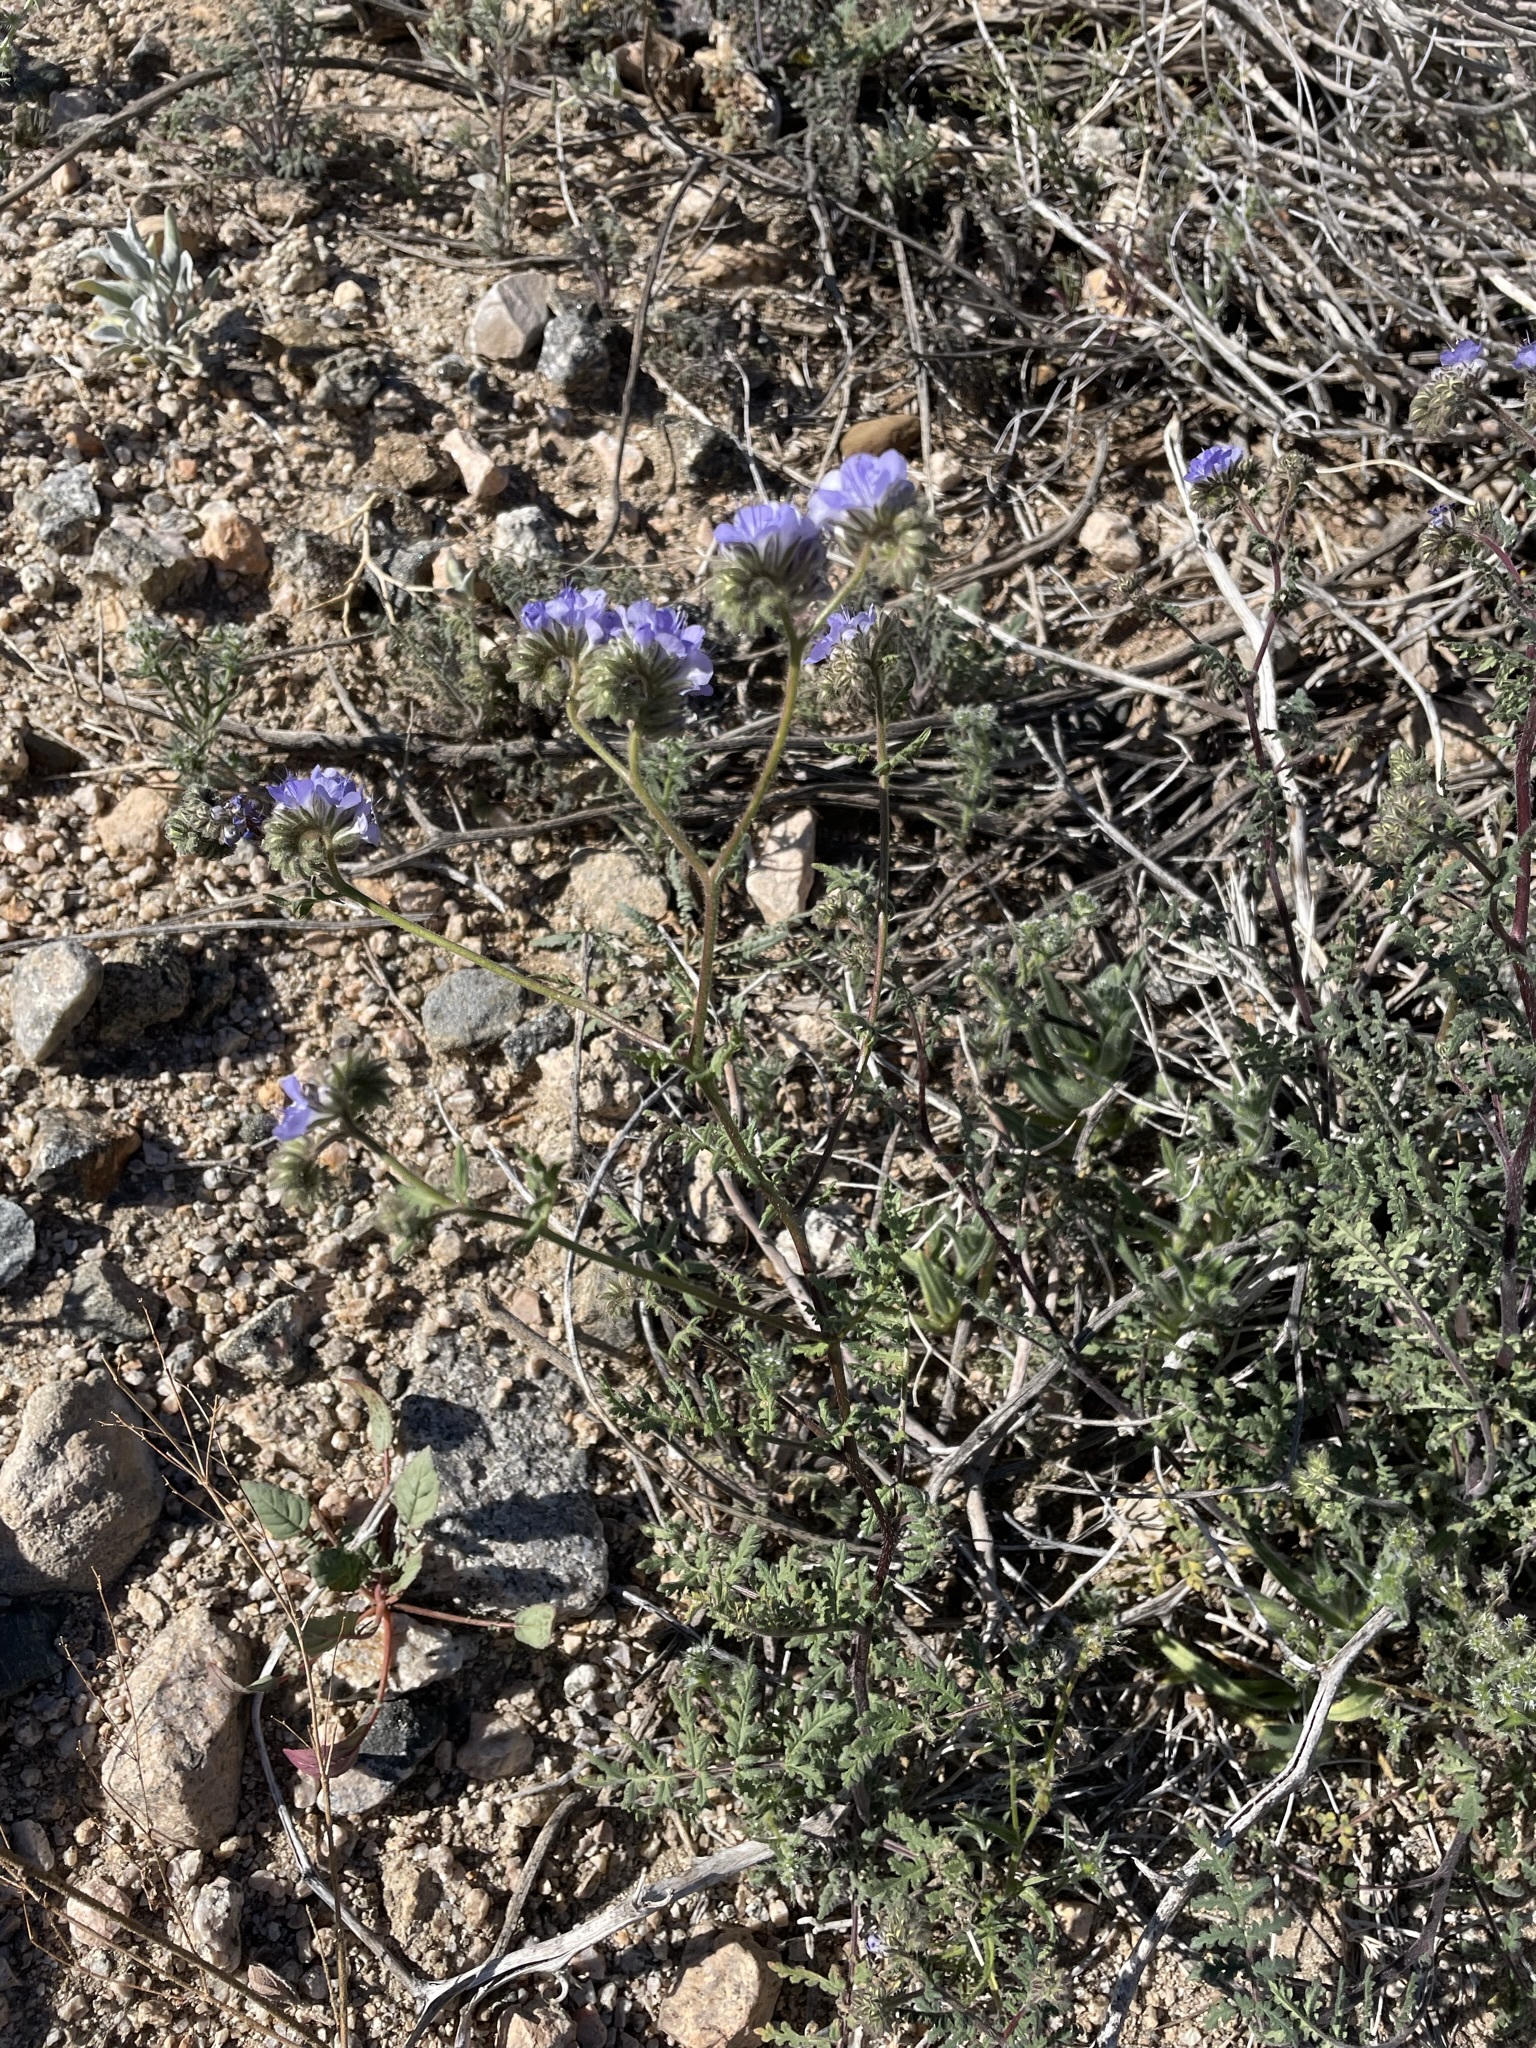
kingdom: Plantae
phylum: Tracheophyta
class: Magnoliopsida
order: Boraginales
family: Hydrophyllaceae
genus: Phacelia
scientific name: Phacelia distans
